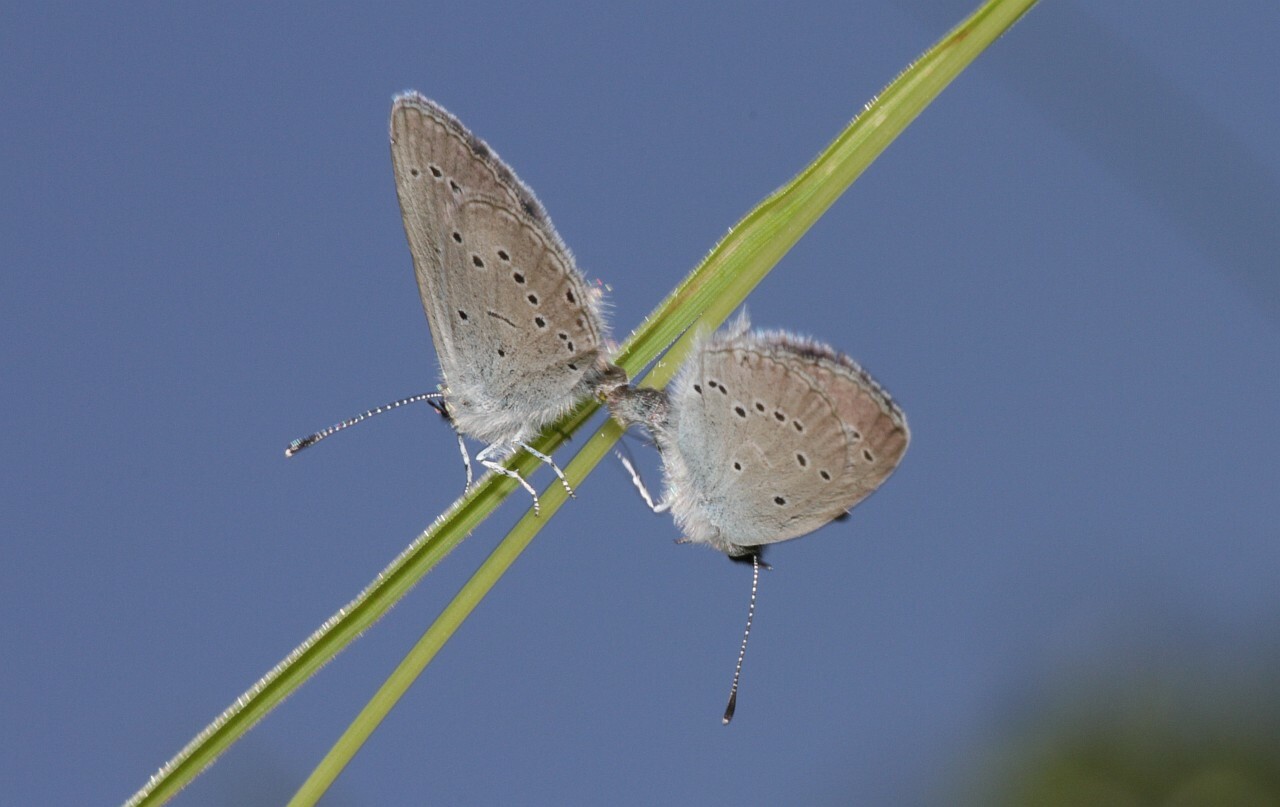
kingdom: Animalia
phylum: Arthropoda
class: Insecta
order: Lepidoptera
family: Lycaenidae
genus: Cupido
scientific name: Cupido minimus
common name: Small blue
